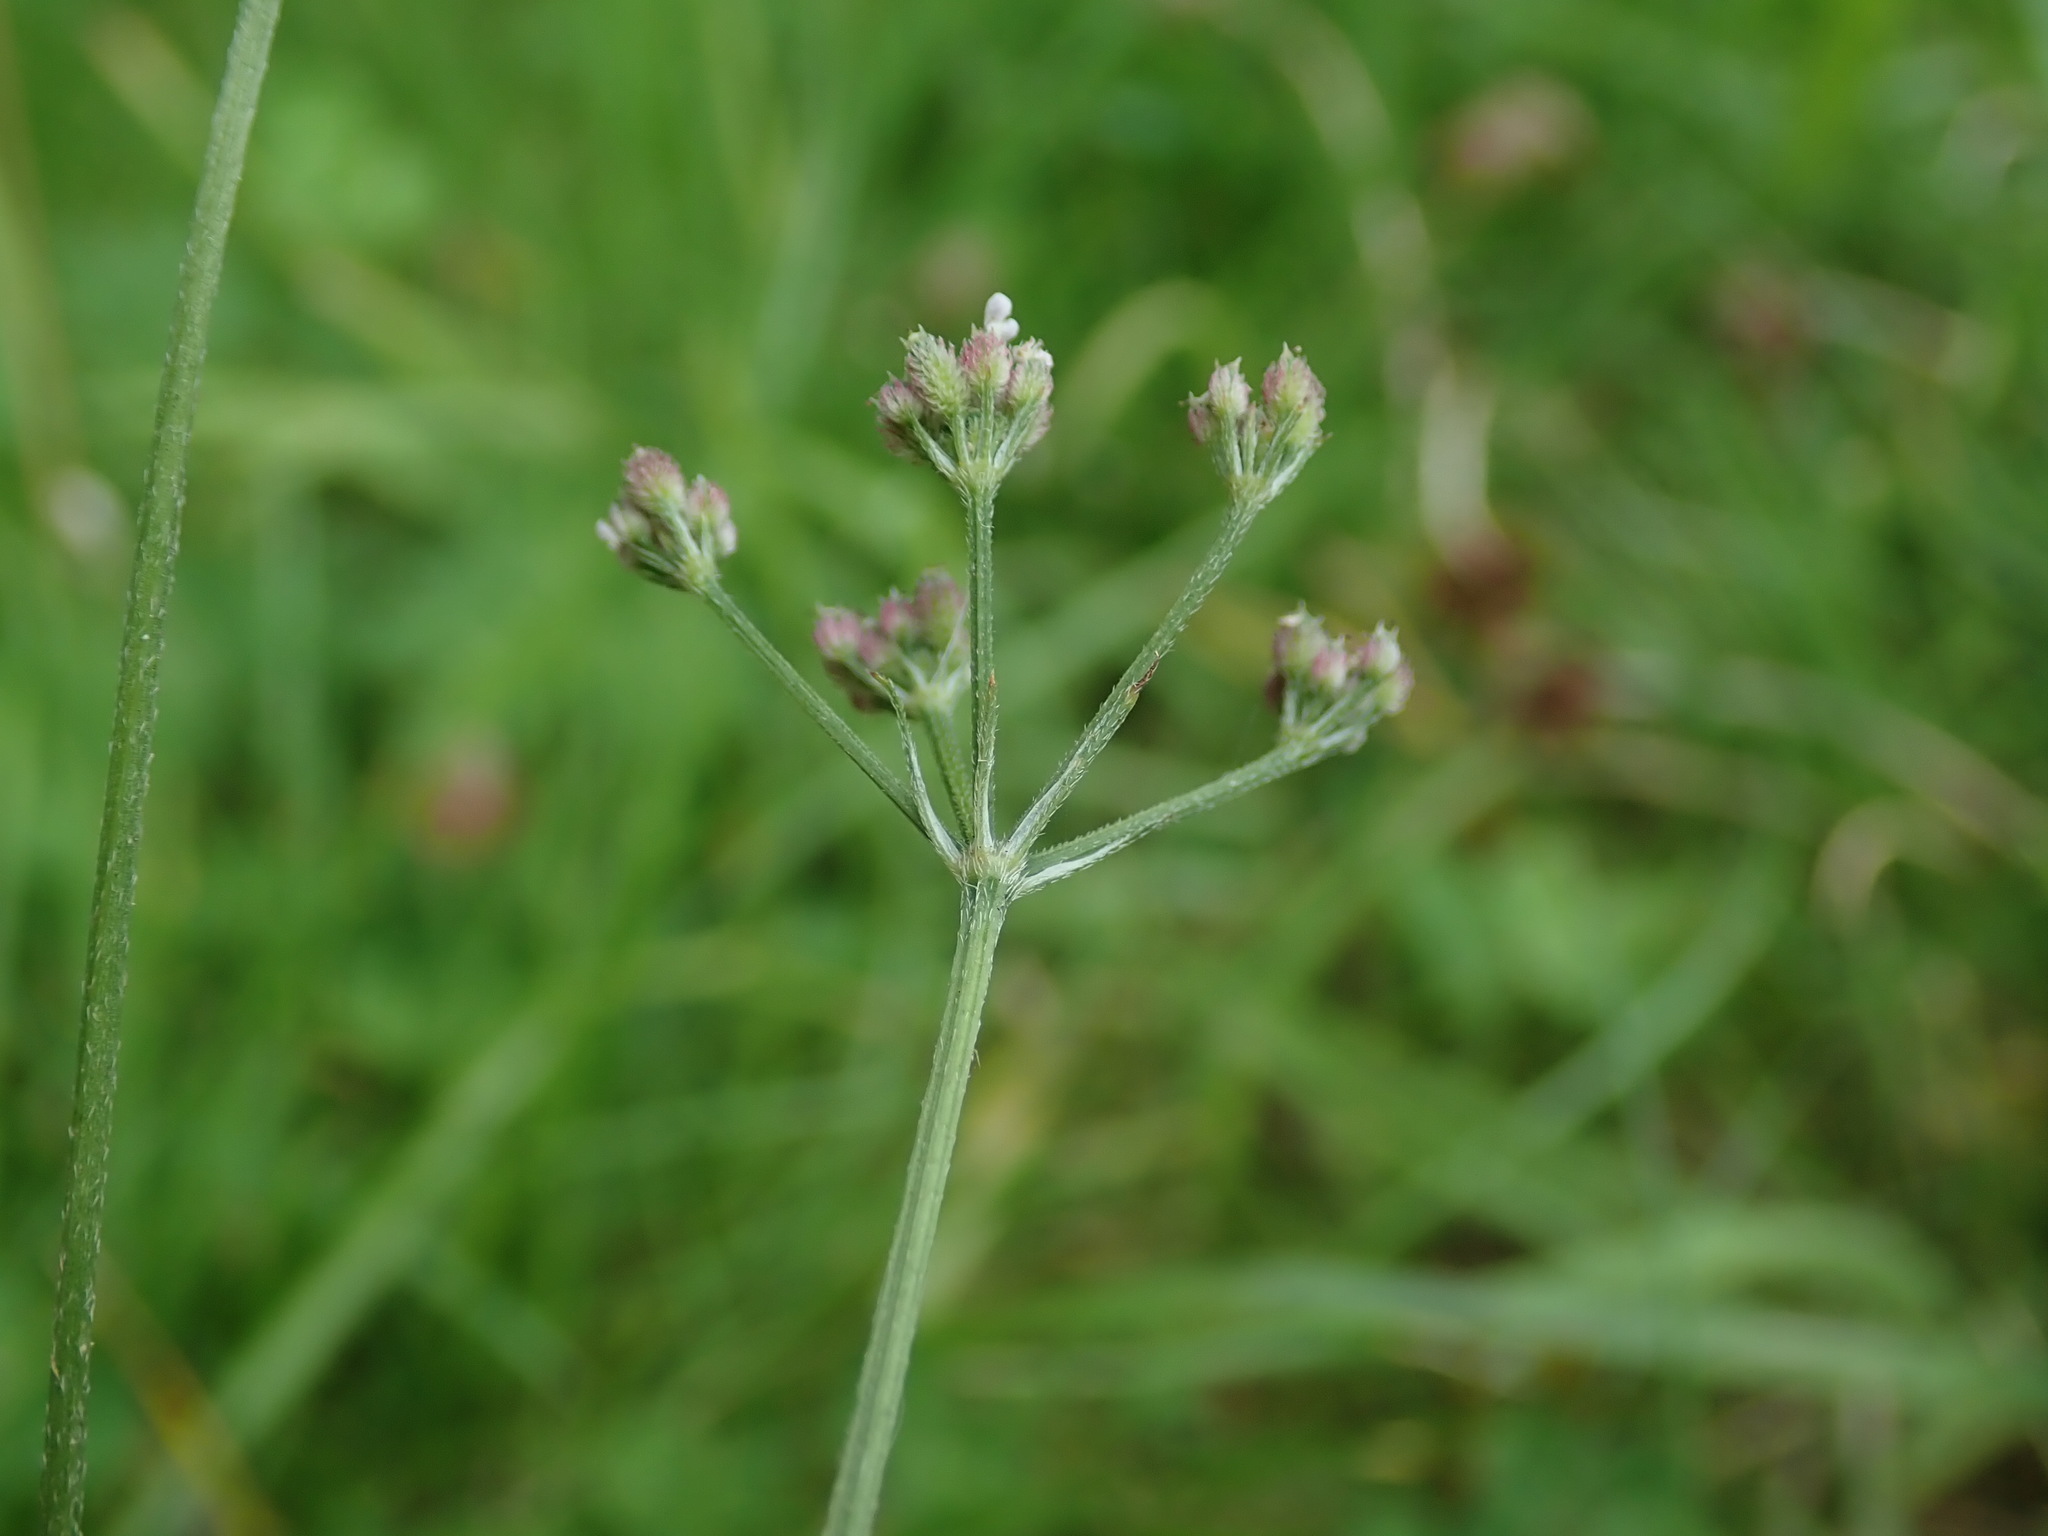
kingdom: Plantae
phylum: Tracheophyta
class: Magnoliopsida
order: Apiales
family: Apiaceae
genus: Torilis
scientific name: Torilis japonica
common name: Upright hedge-parsley
